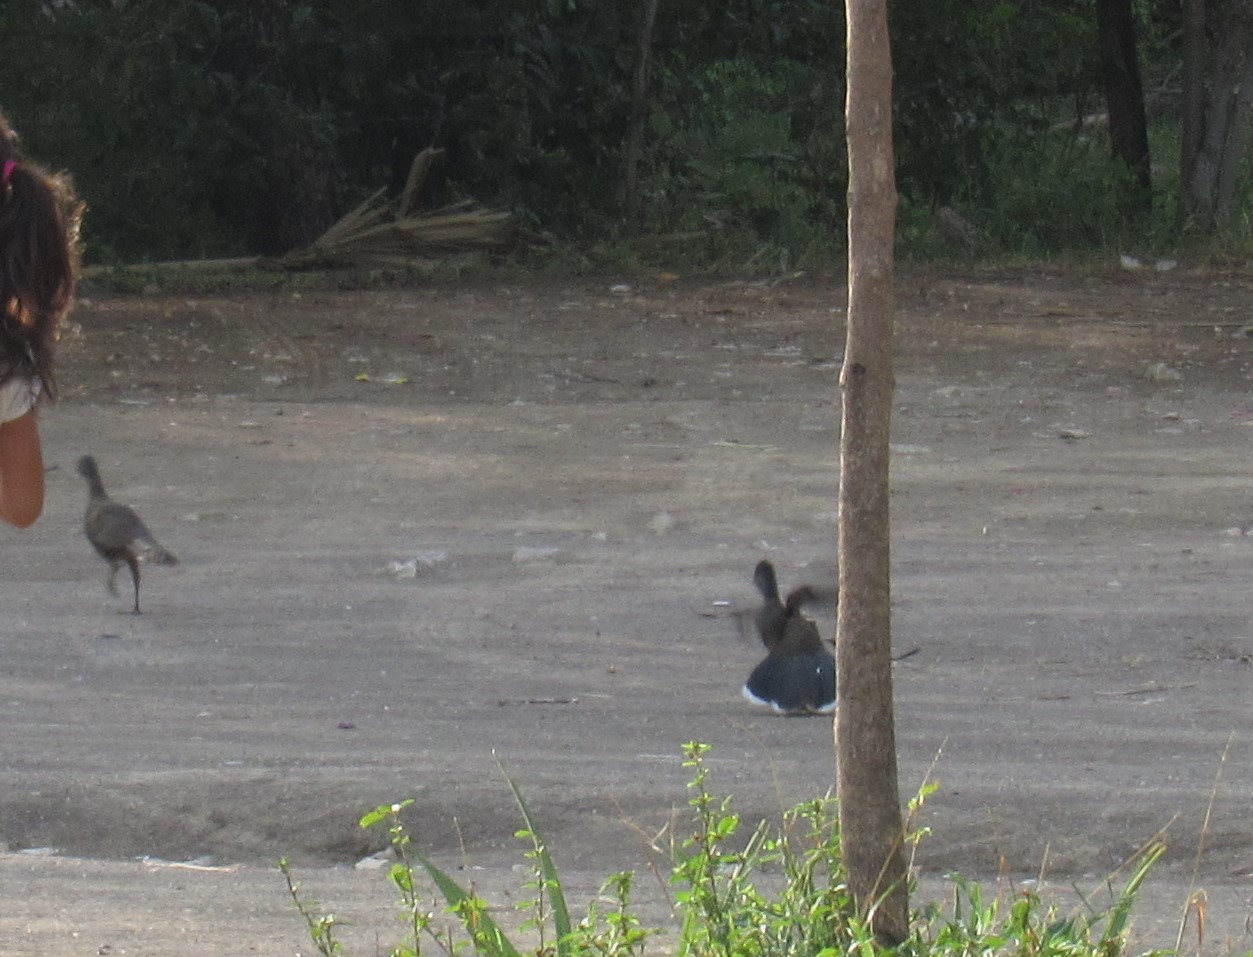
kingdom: Animalia
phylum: Chordata
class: Aves
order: Galliformes
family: Cracidae
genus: Ortalis
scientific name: Ortalis vetula
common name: Plain chachalaca
